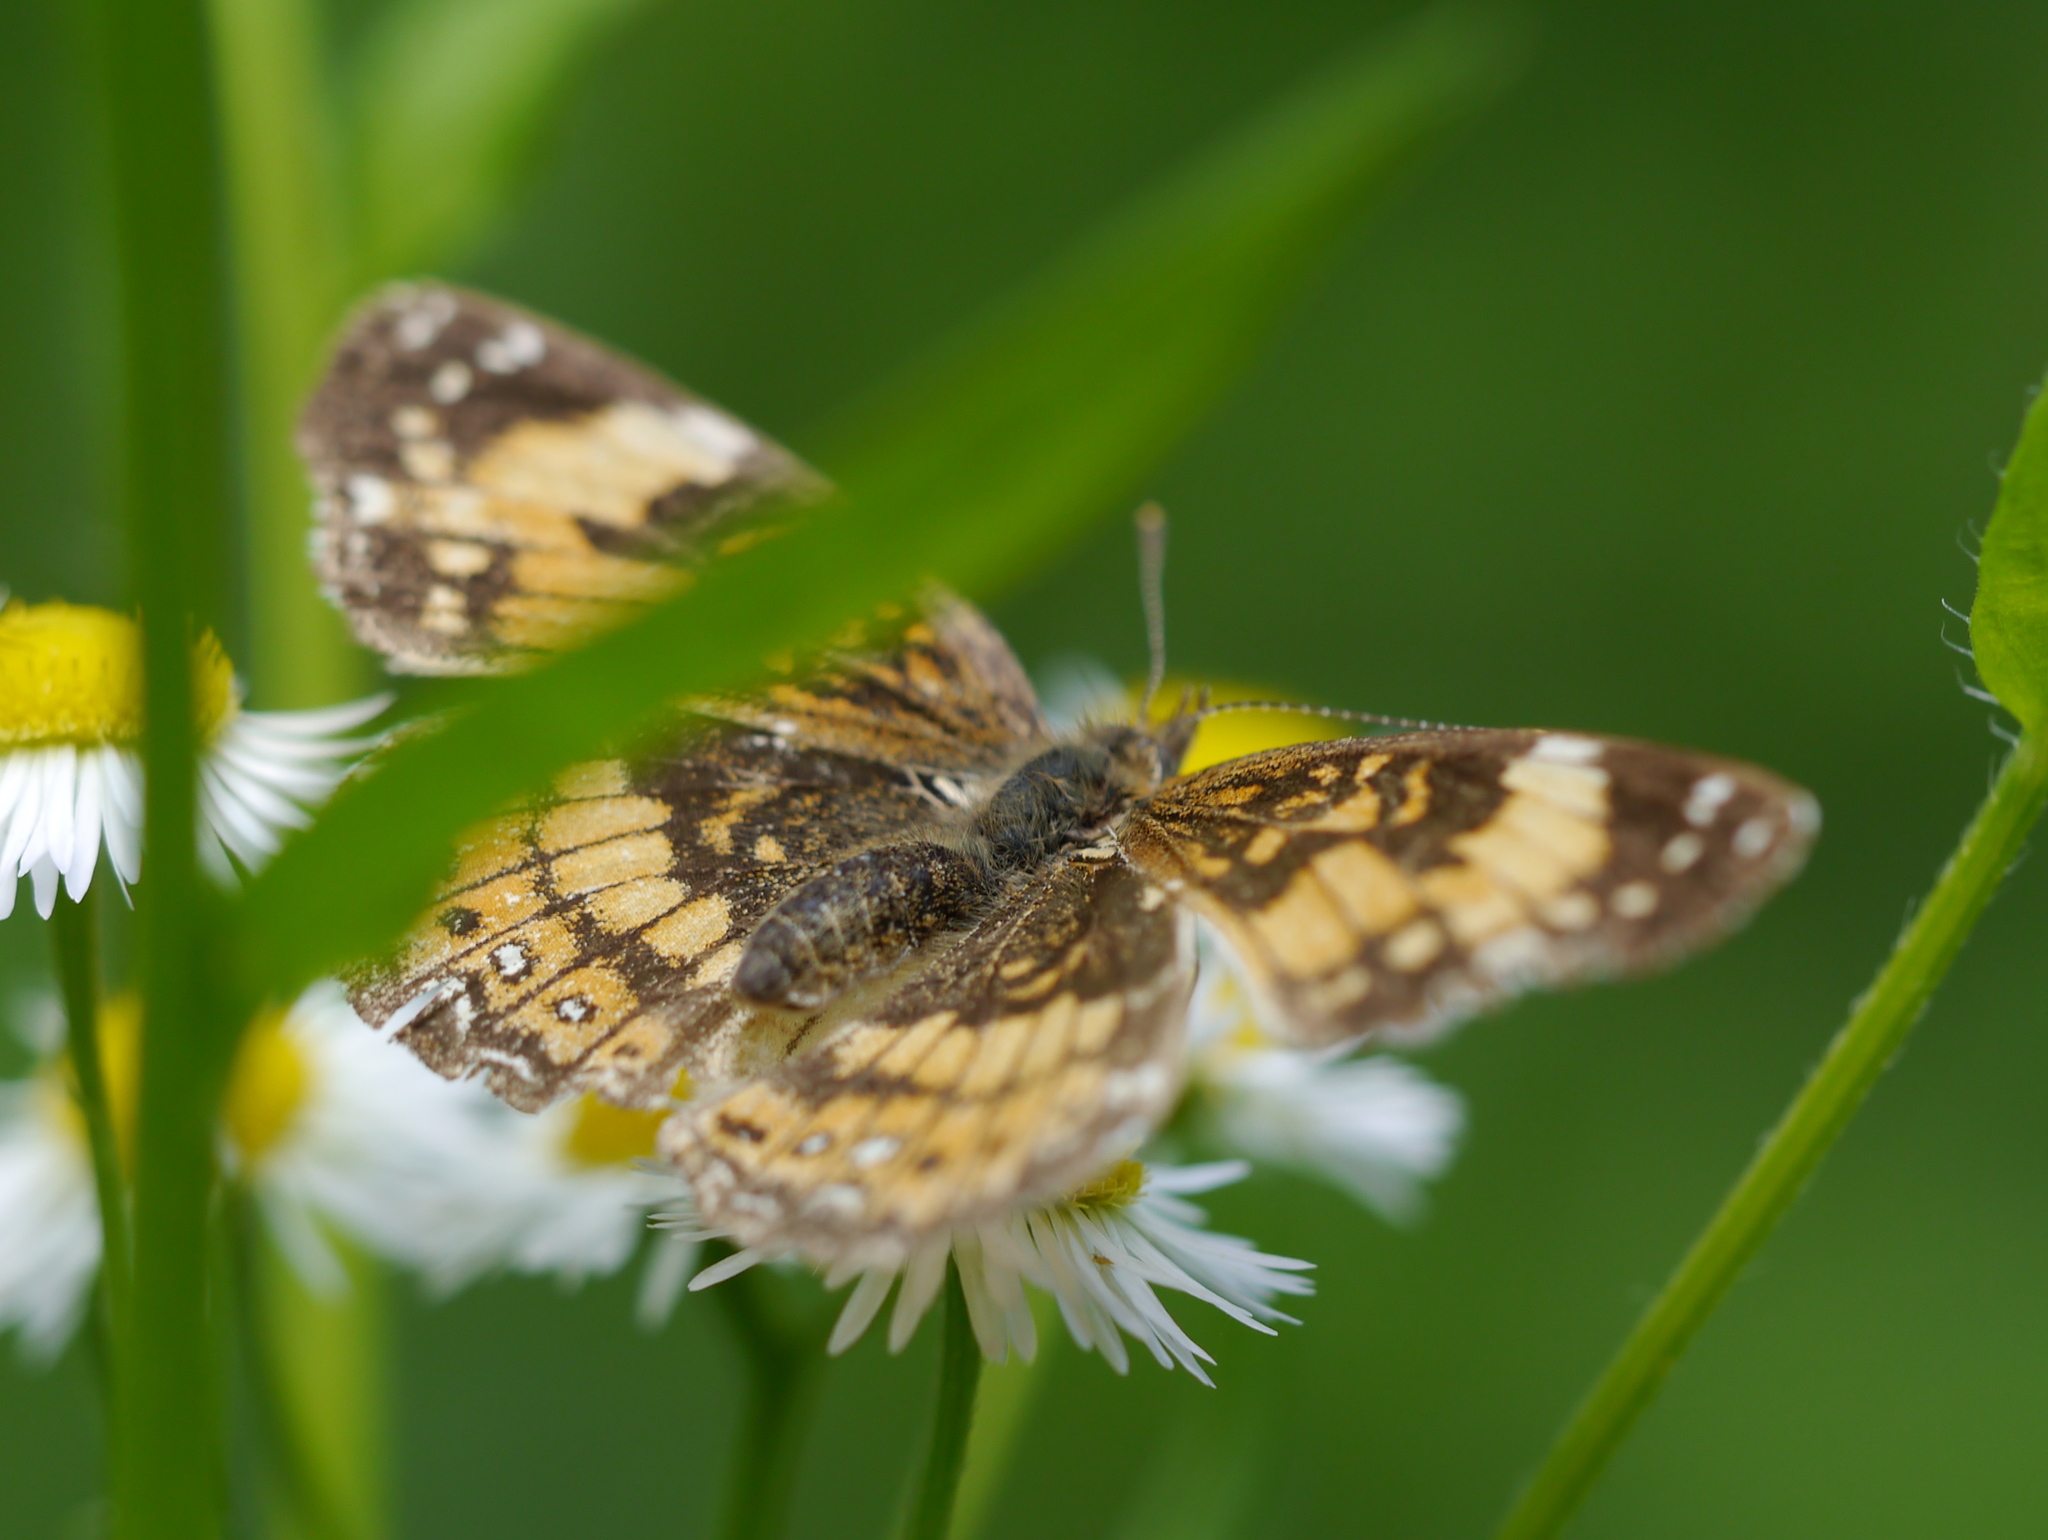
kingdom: Animalia
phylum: Arthropoda
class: Insecta
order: Lepidoptera
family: Nymphalidae
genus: Chlosyne
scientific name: Chlosyne nycteis
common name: Silvery checkerspot
